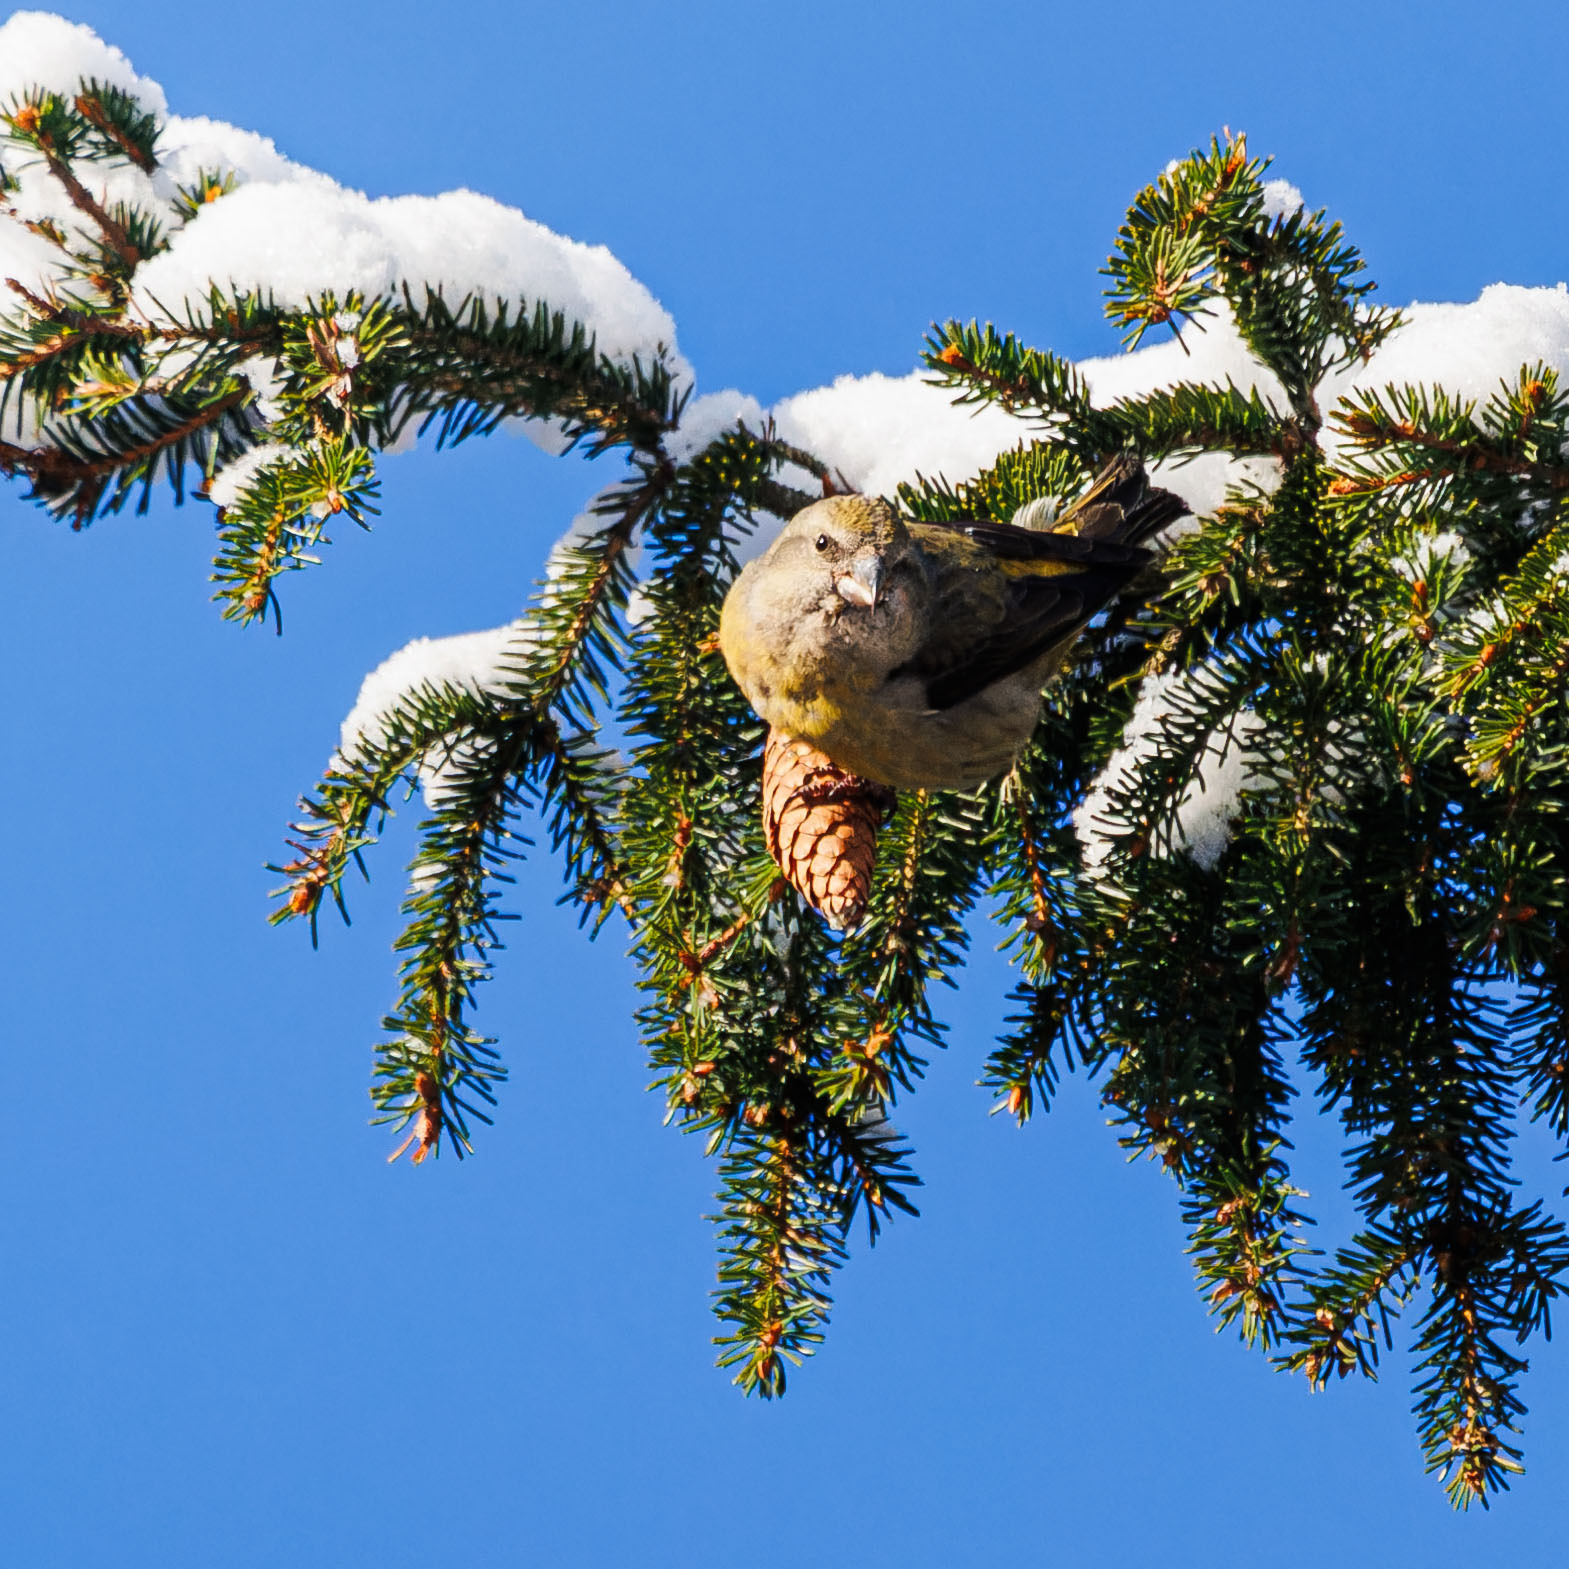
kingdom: Animalia
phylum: Chordata
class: Aves
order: Passeriformes
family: Fringillidae
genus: Loxia
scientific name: Loxia curvirostra
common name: Red crossbill
